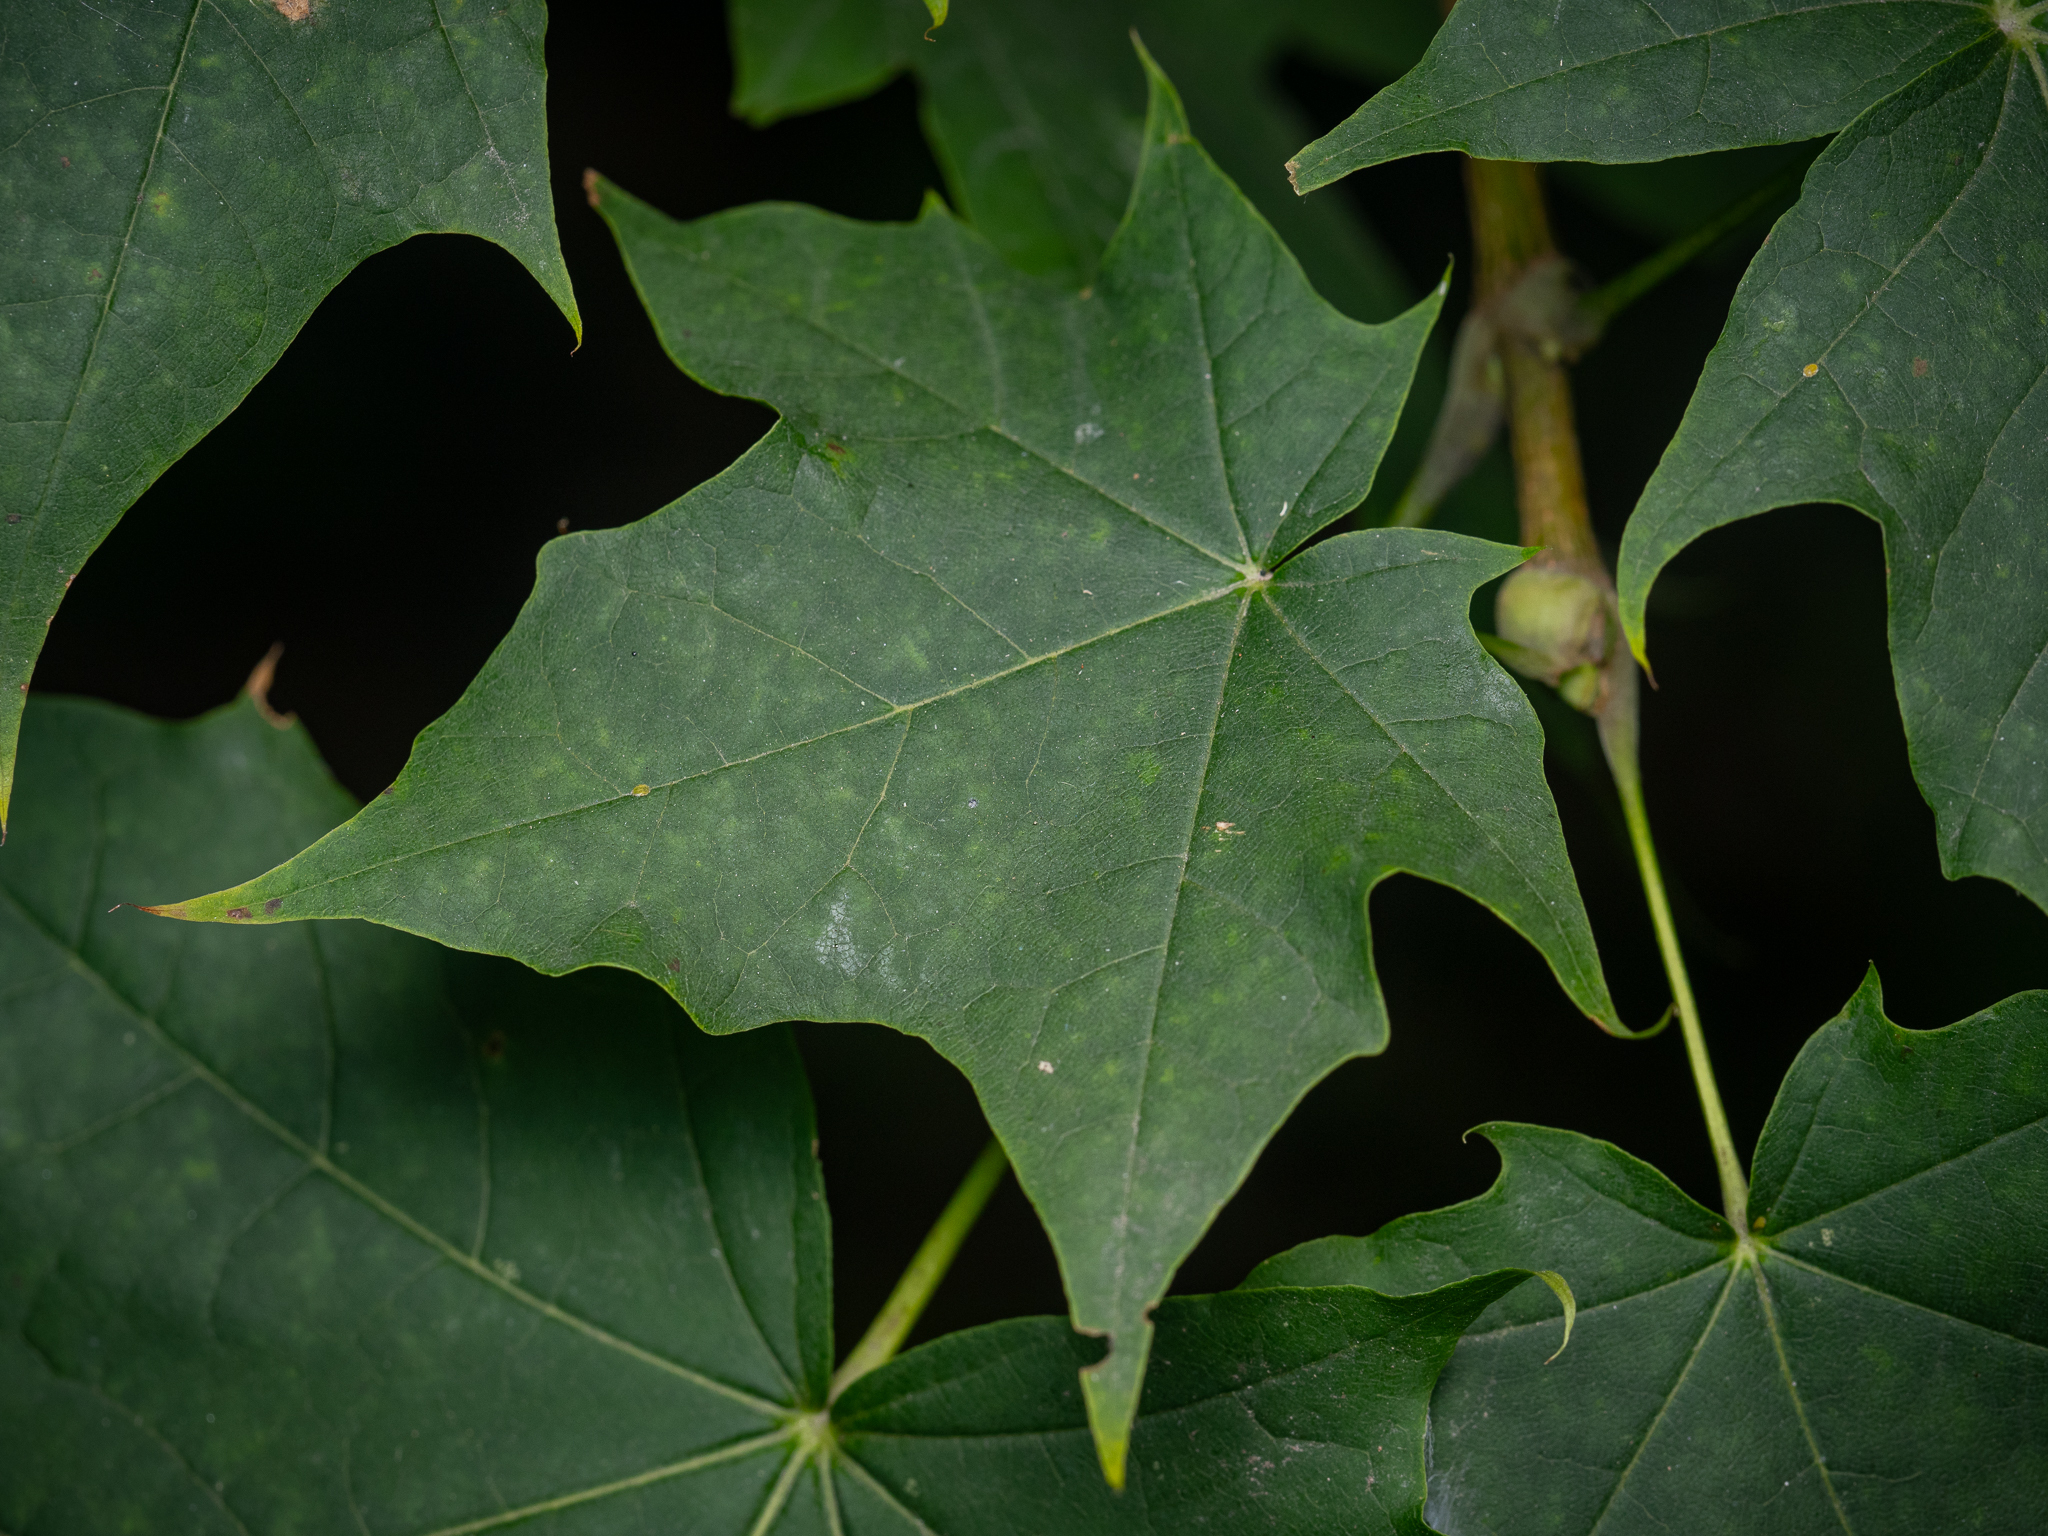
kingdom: Plantae
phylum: Tracheophyta
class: Magnoliopsida
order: Sapindales
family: Sapindaceae
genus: Acer
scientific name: Acer platanoides
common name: Norway maple
